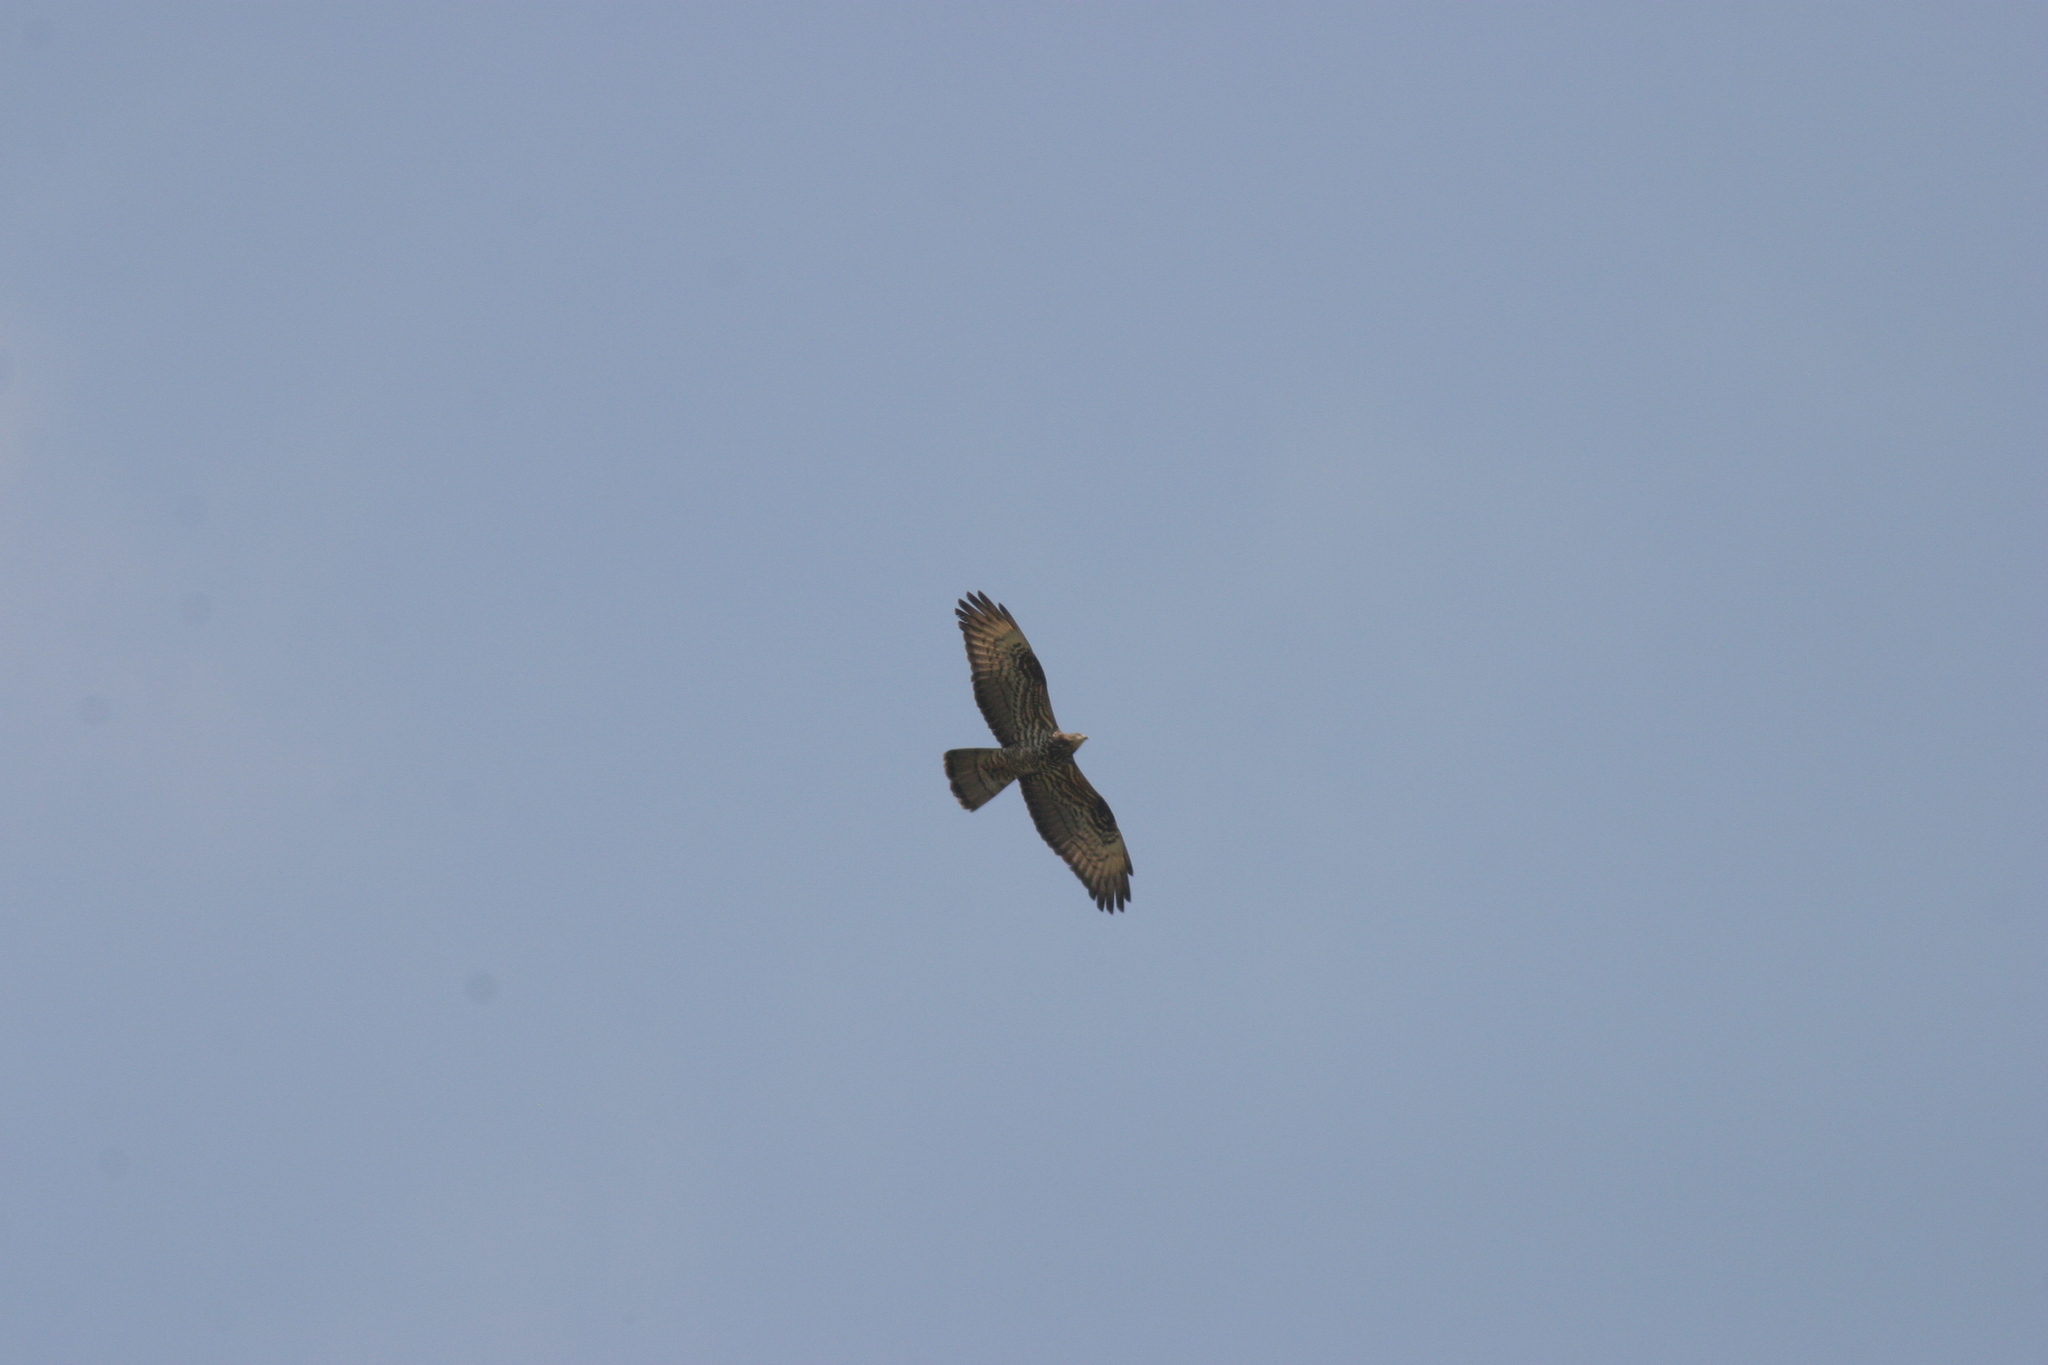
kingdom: Animalia
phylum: Chordata
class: Aves
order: Accipitriformes
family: Accipitridae
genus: Pernis
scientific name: Pernis apivorus
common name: European honey buzzard
